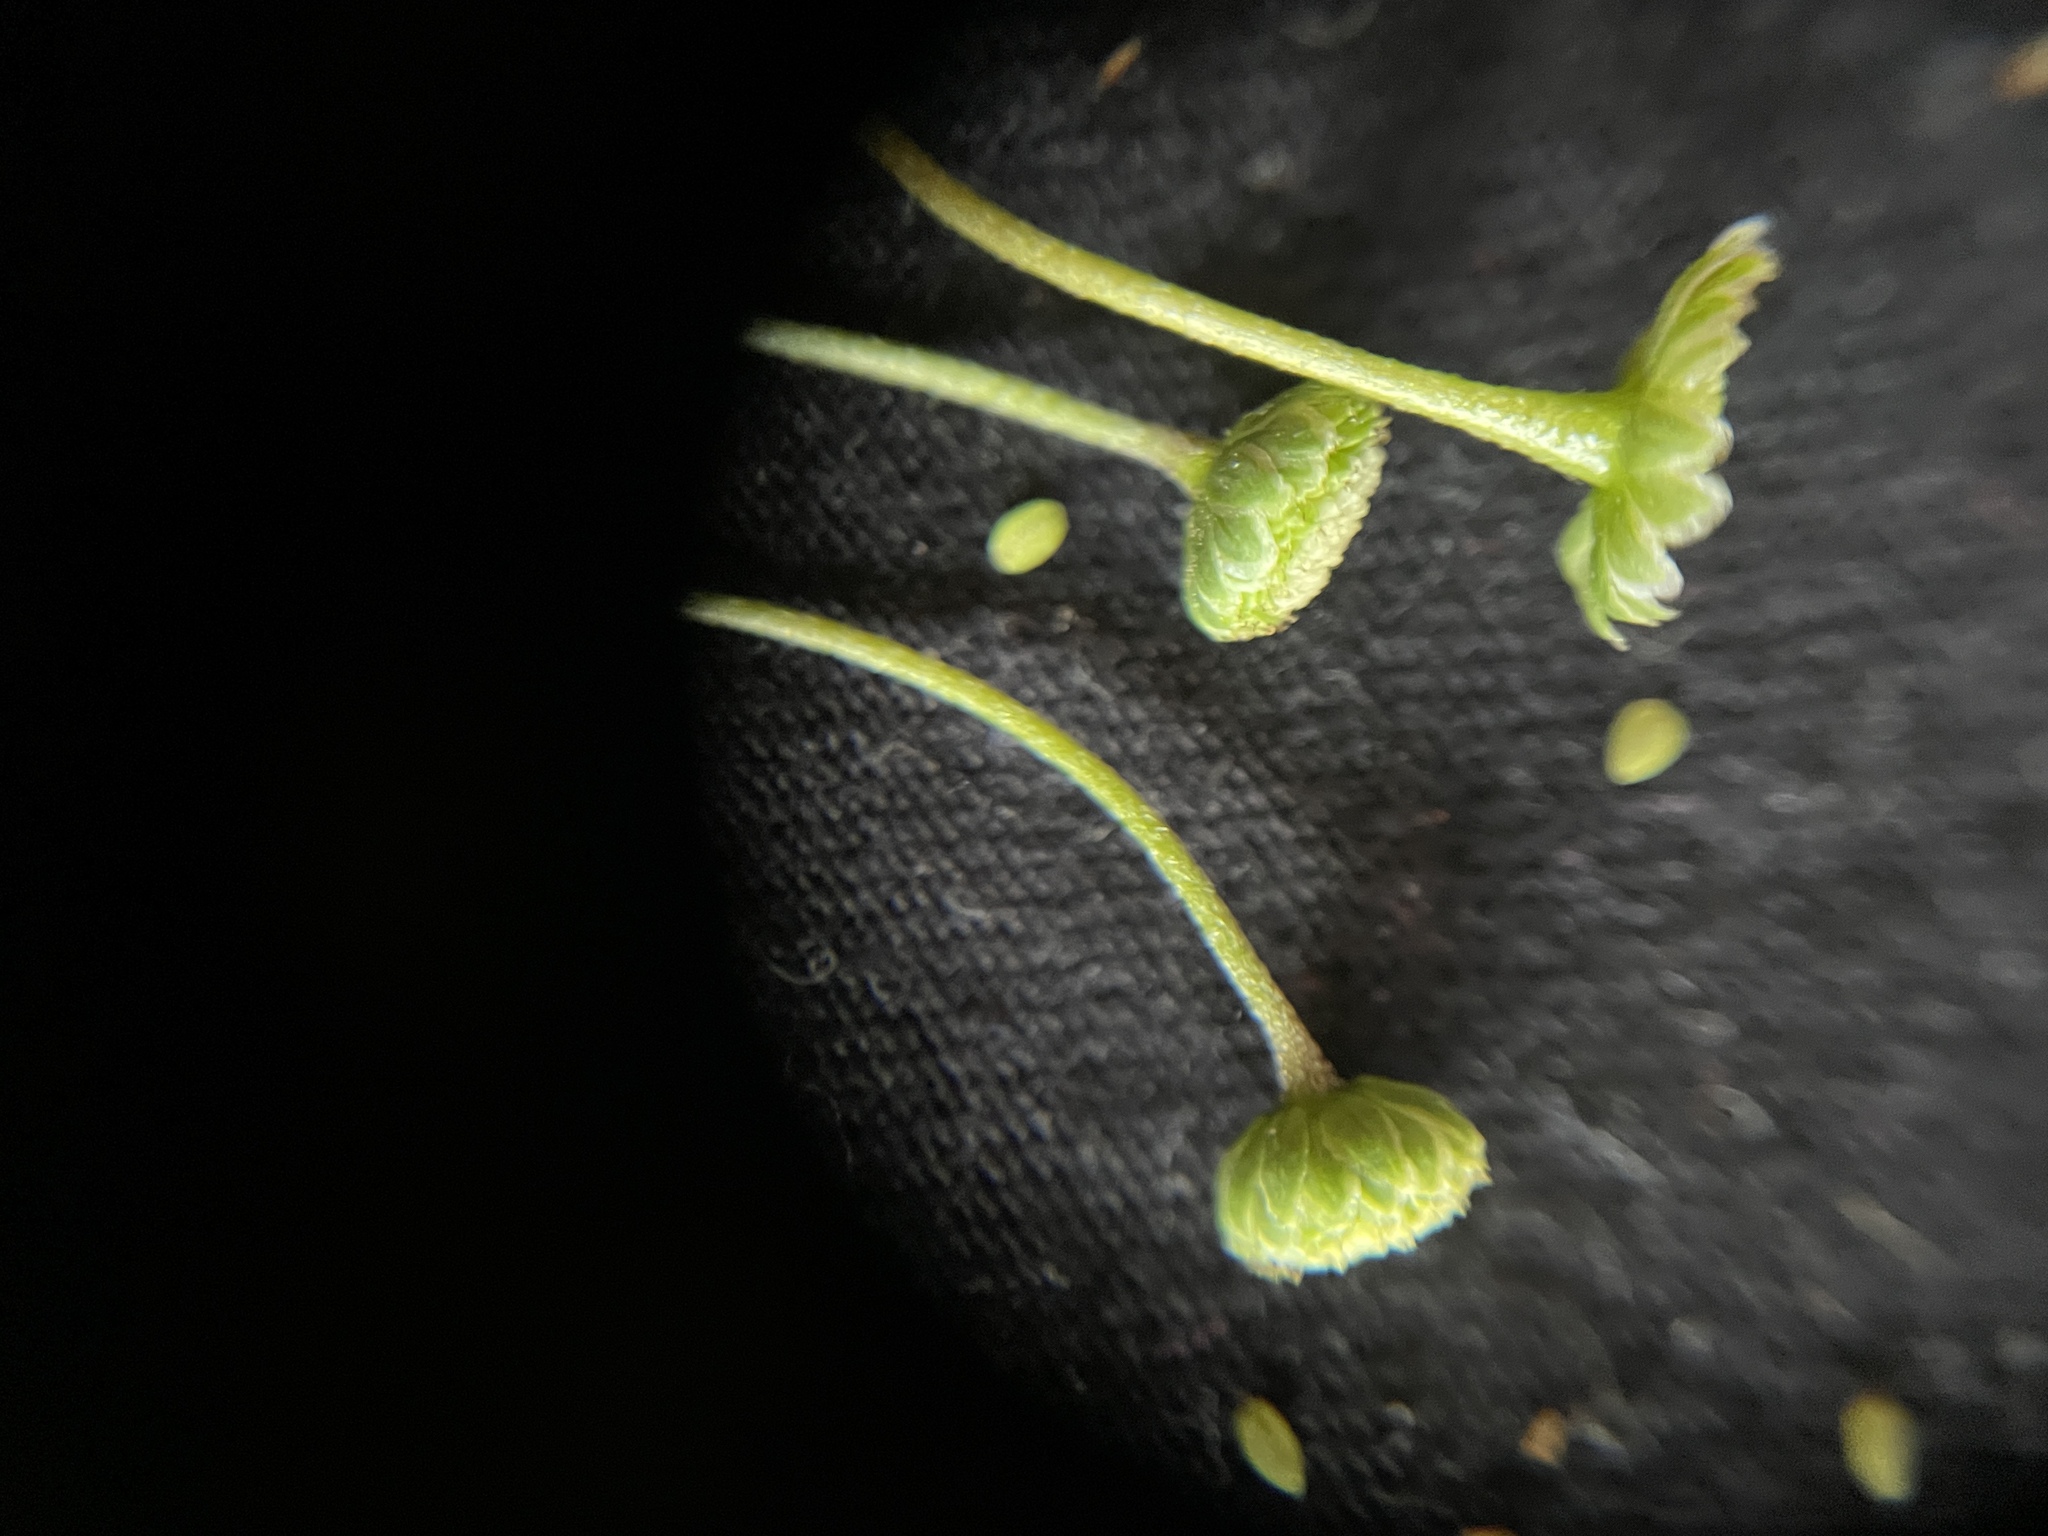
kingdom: Plantae
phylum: Tracheophyta
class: Magnoliopsida
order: Asterales
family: Asteraceae
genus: Cotula
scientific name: Cotula australis
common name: Australian waterbuttons
